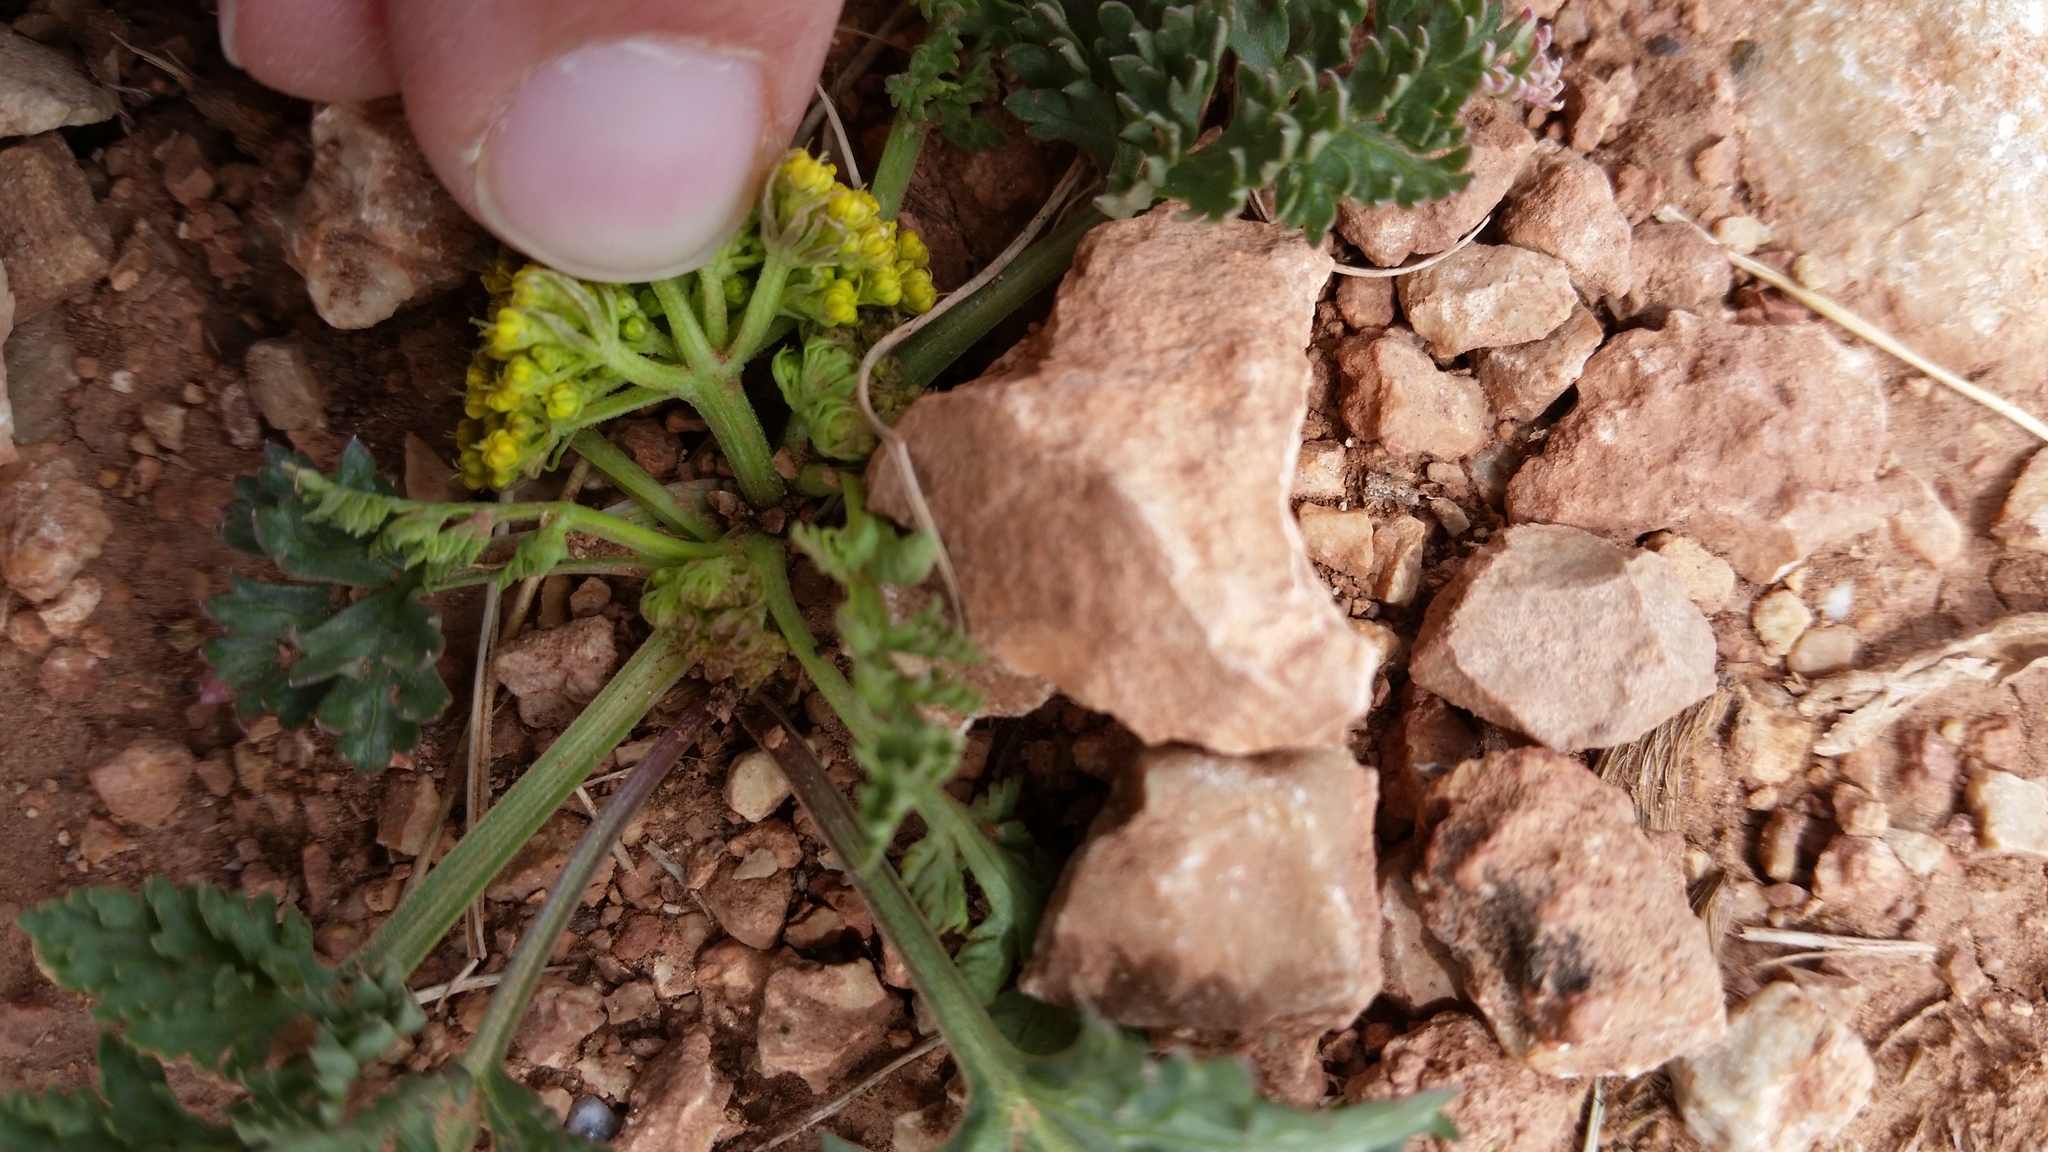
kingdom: Plantae
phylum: Tracheophyta
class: Magnoliopsida
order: Apiales
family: Apiaceae
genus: Musineon
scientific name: Musineon divaricatum
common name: Plains musineon
